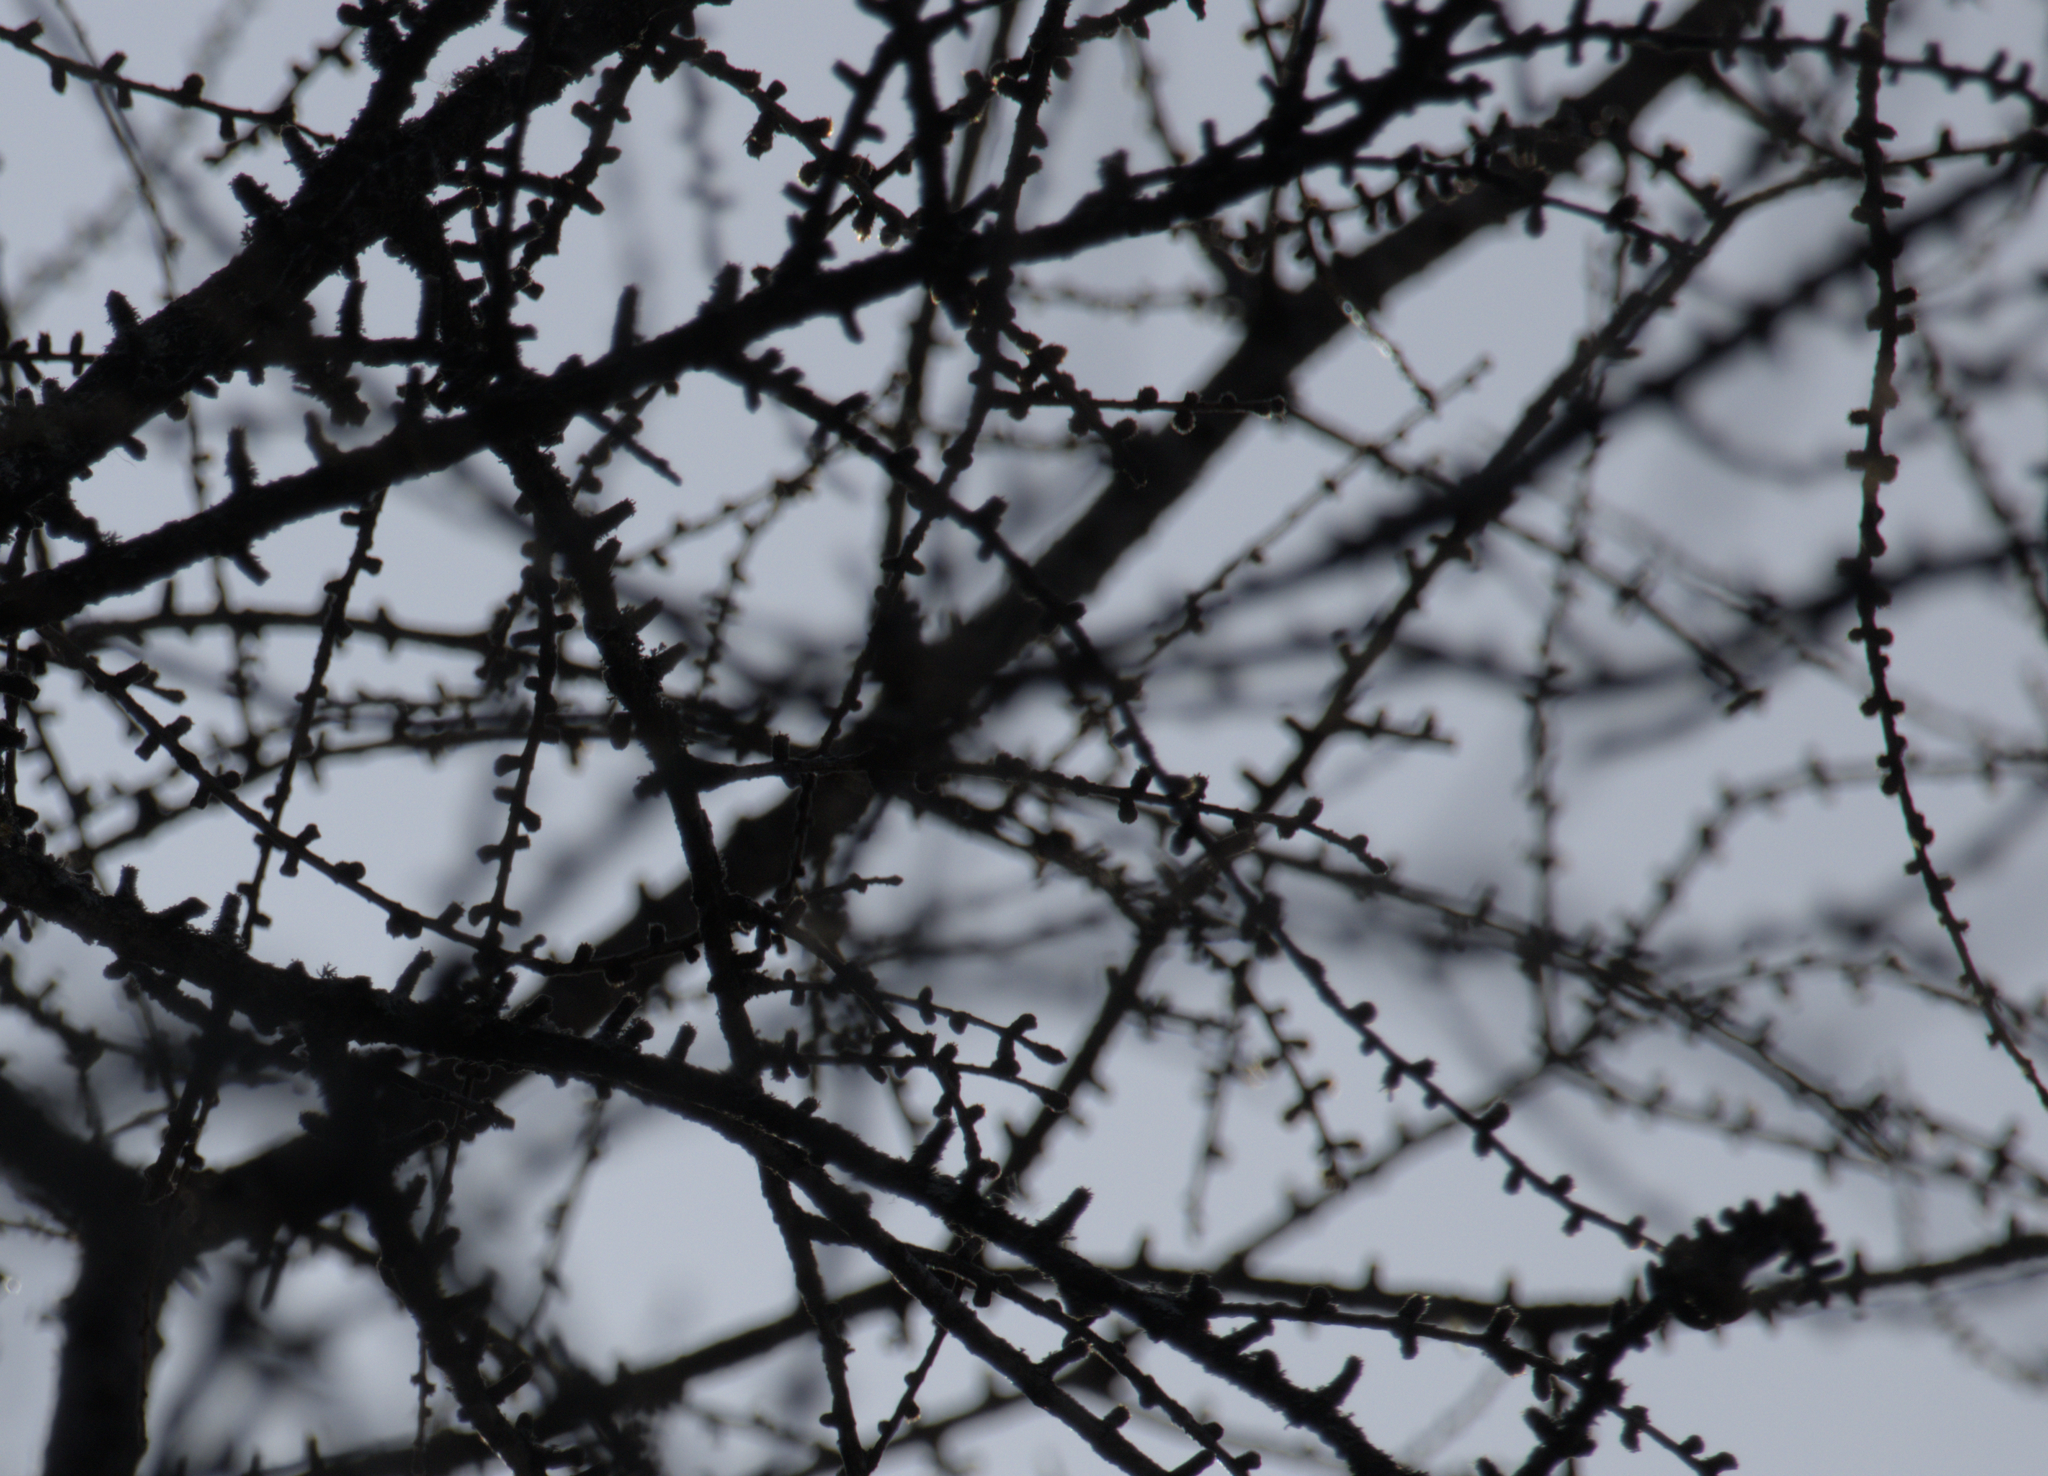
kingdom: Plantae
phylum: Tracheophyta
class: Pinopsida
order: Pinales
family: Pinaceae
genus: Larix
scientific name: Larix laricina
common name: American larch
